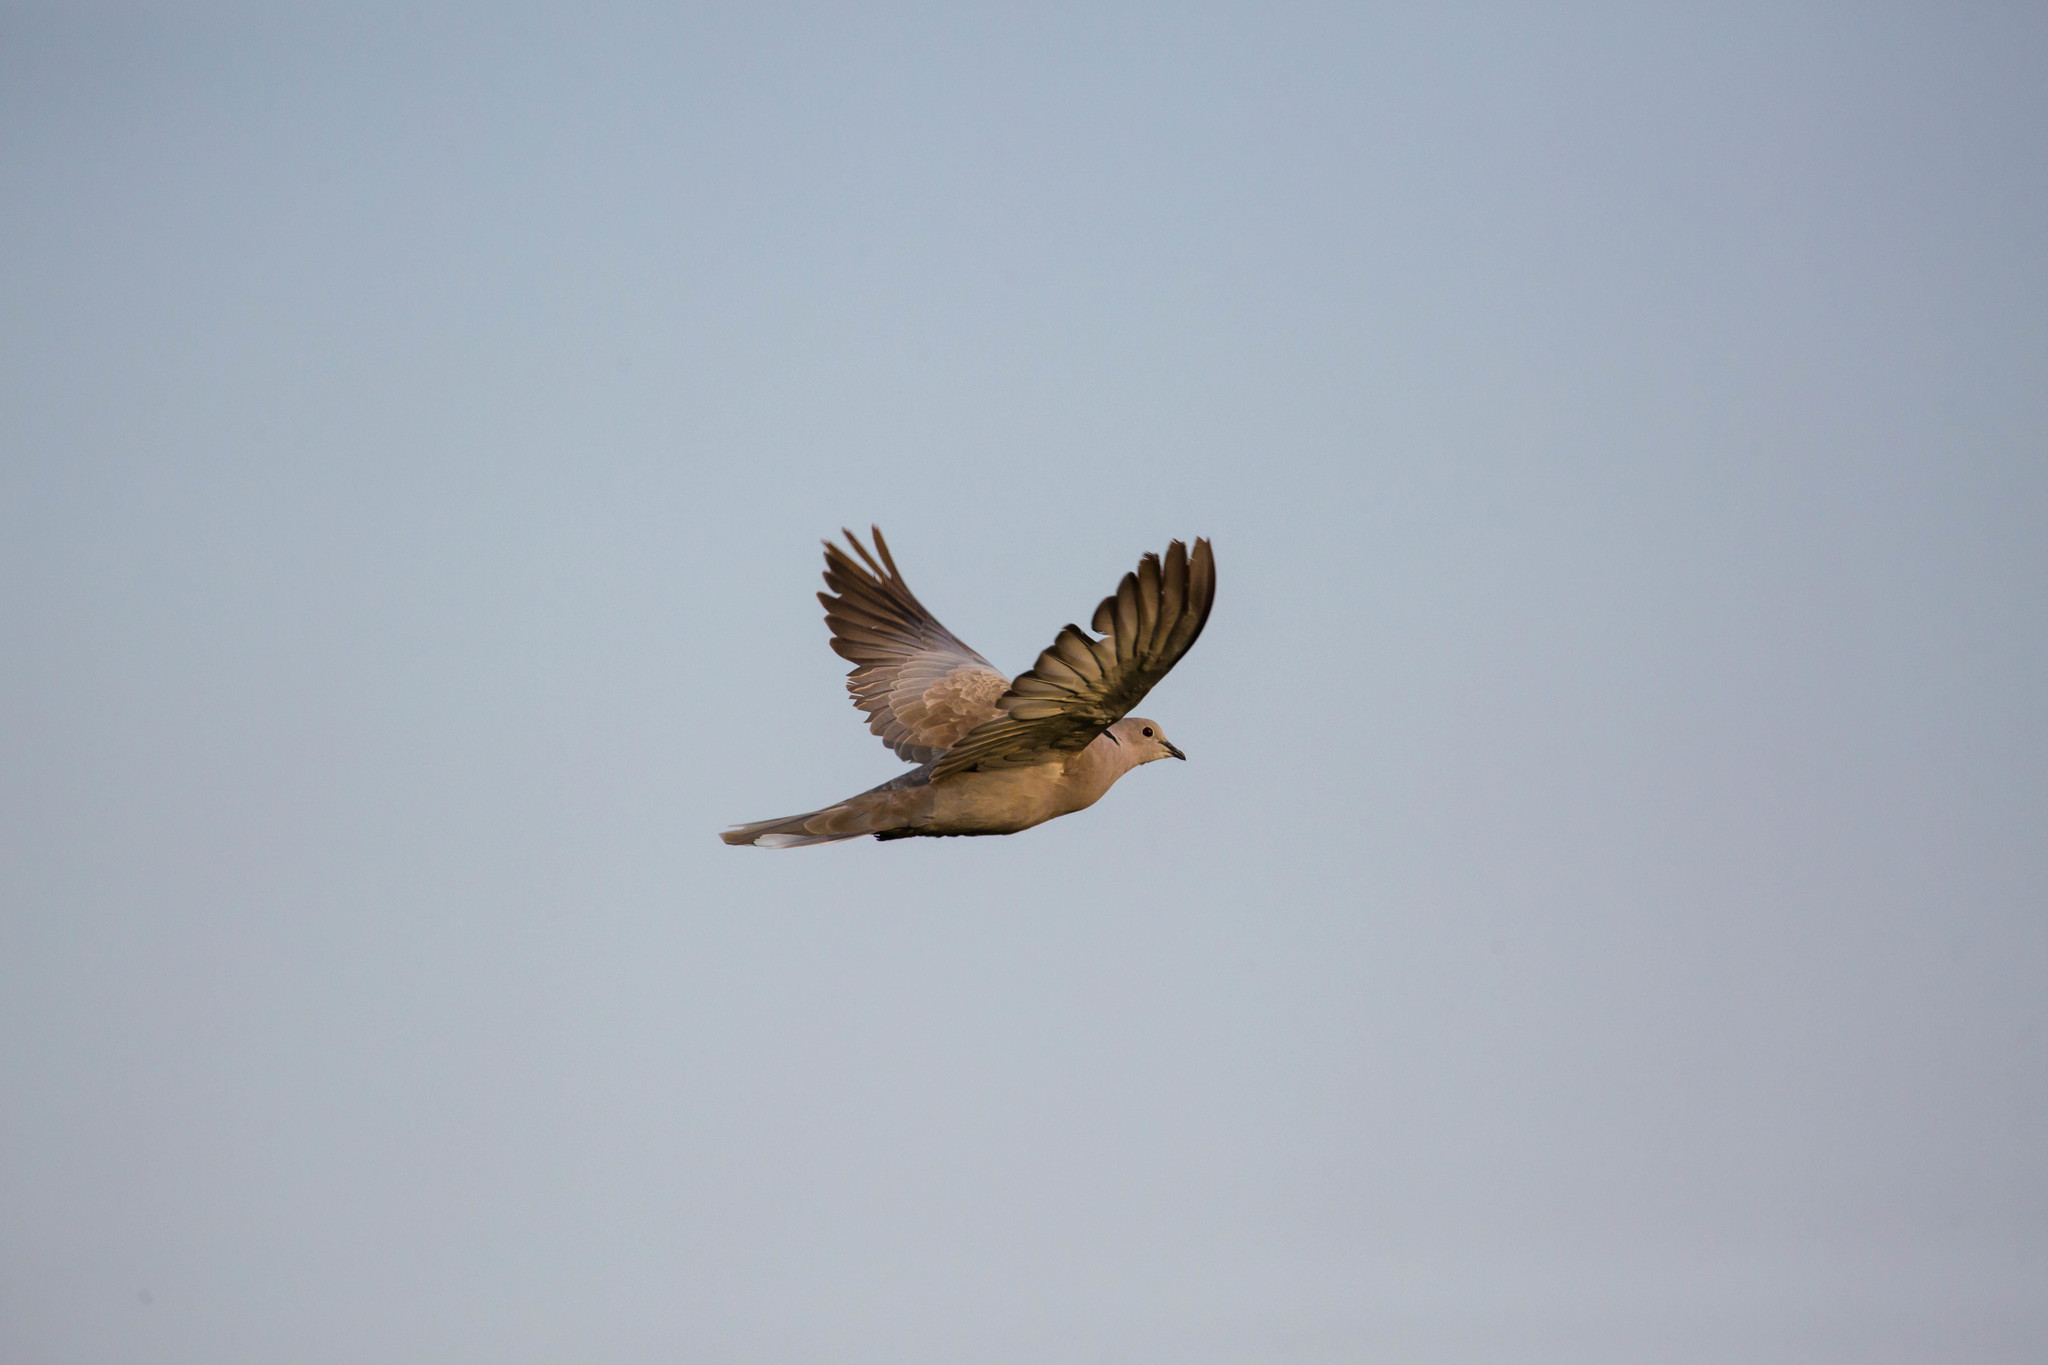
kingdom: Animalia
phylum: Chordata
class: Aves
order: Columbiformes
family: Columbidae
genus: Streptopelia
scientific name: Streptopelia decaocto
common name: Eurasian collared dove
